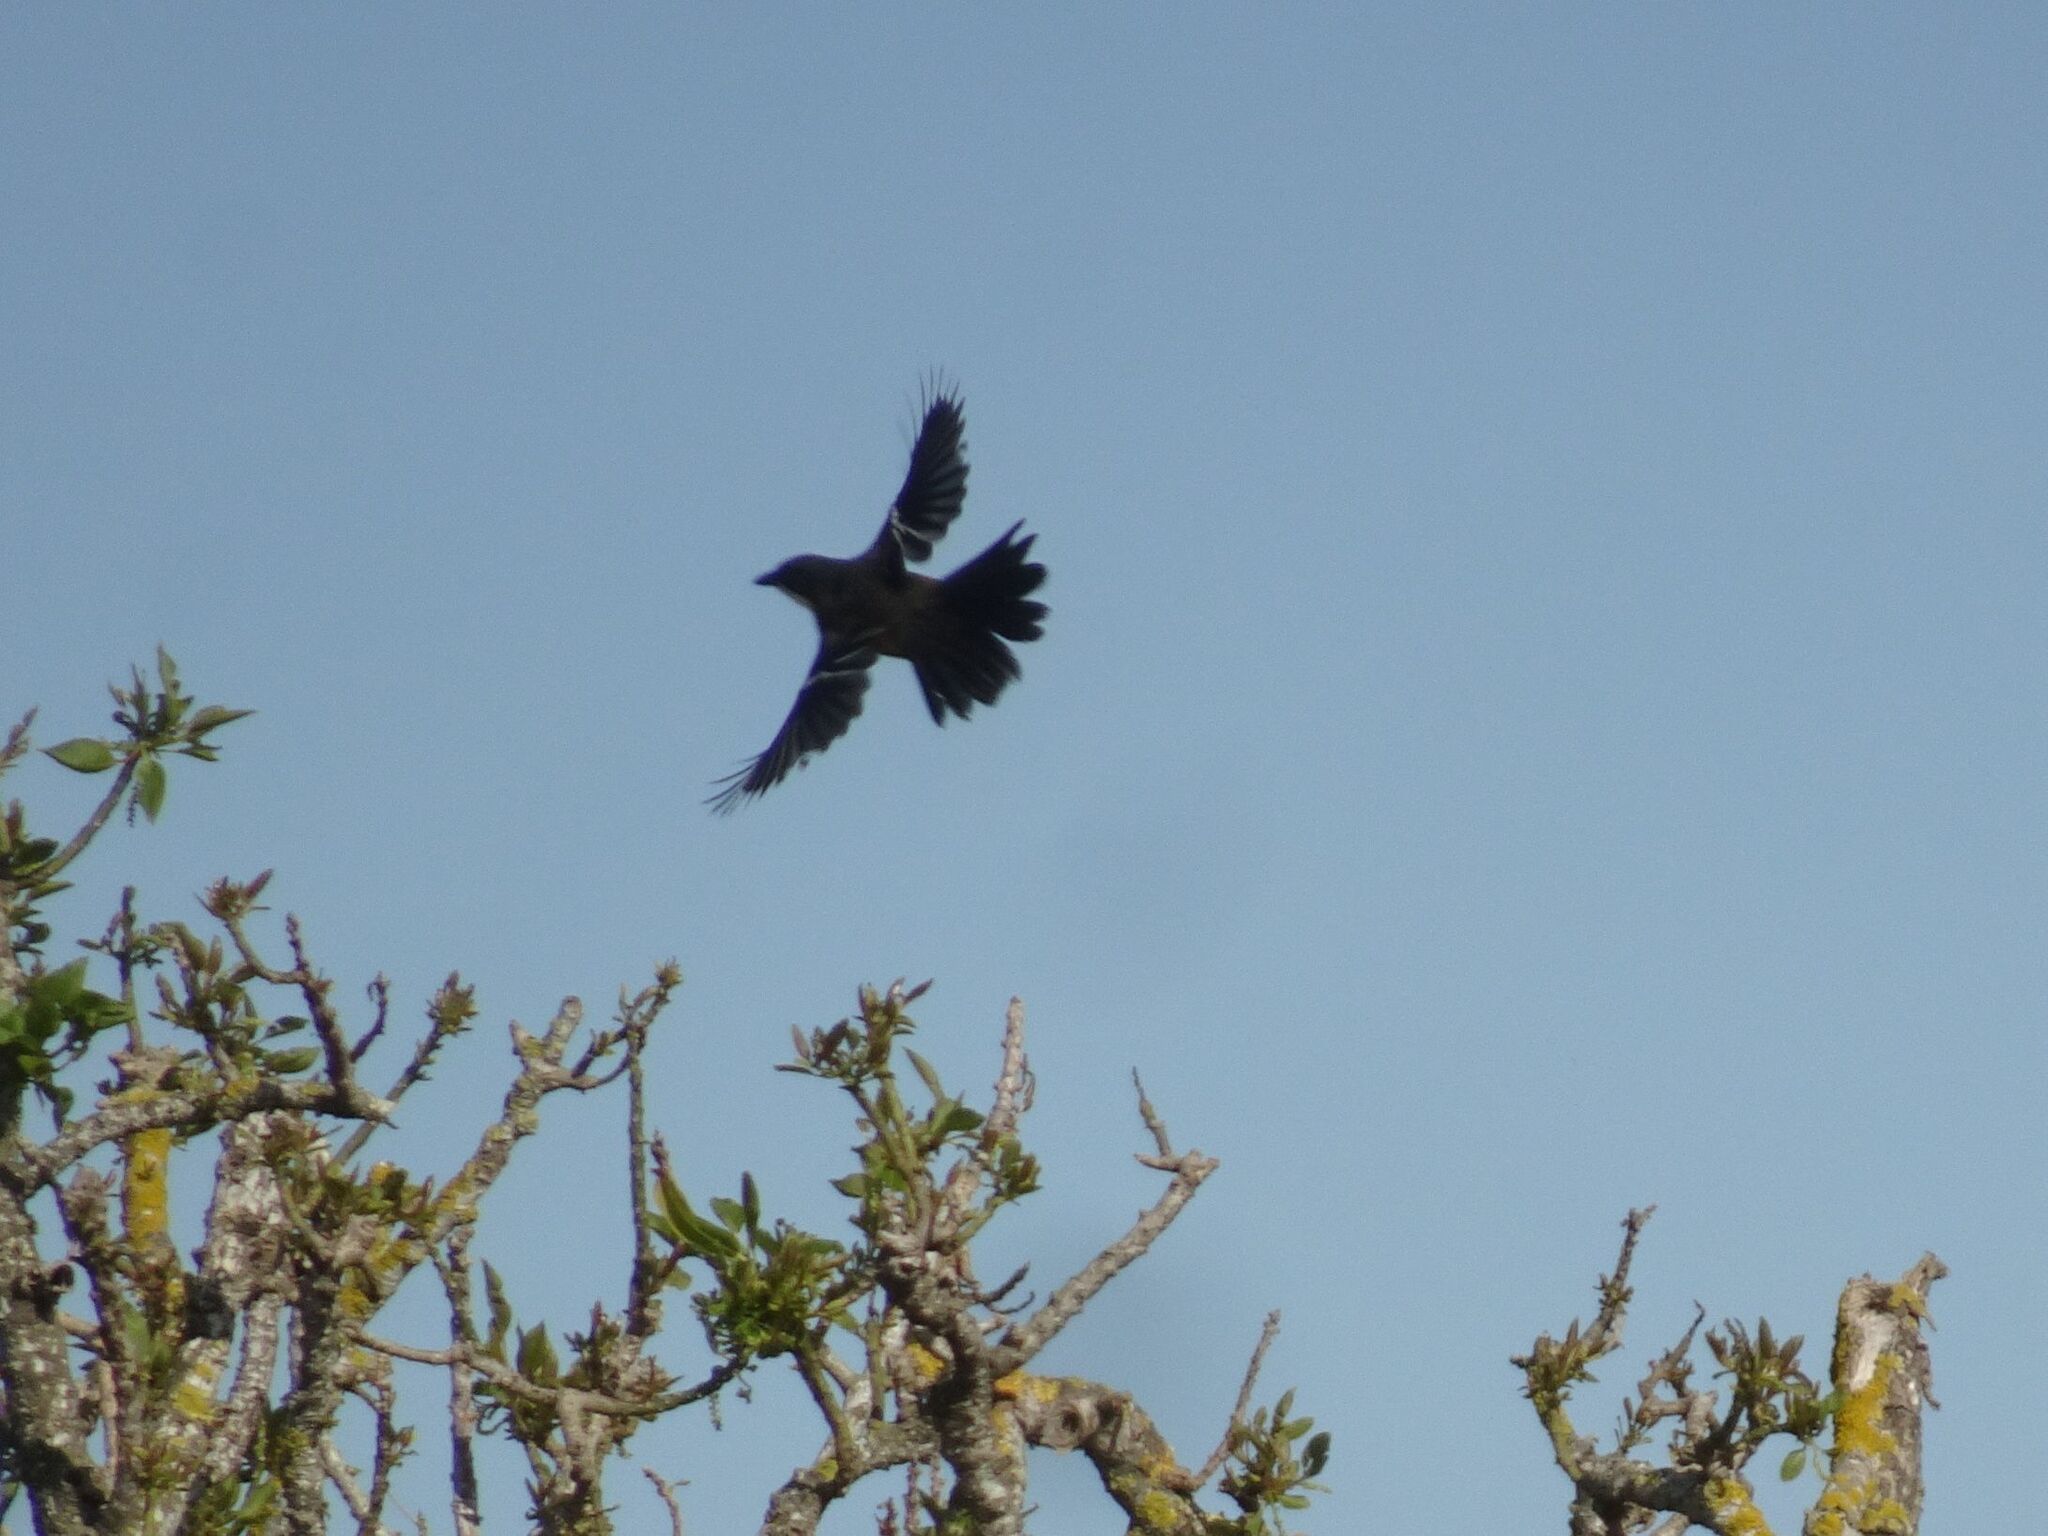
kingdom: Animalia
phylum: Chordata
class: Aves
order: Passeriformes
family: Malaconotidae
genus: Laniarius
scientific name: Laniarius ferrugineus
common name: Southern boubou
